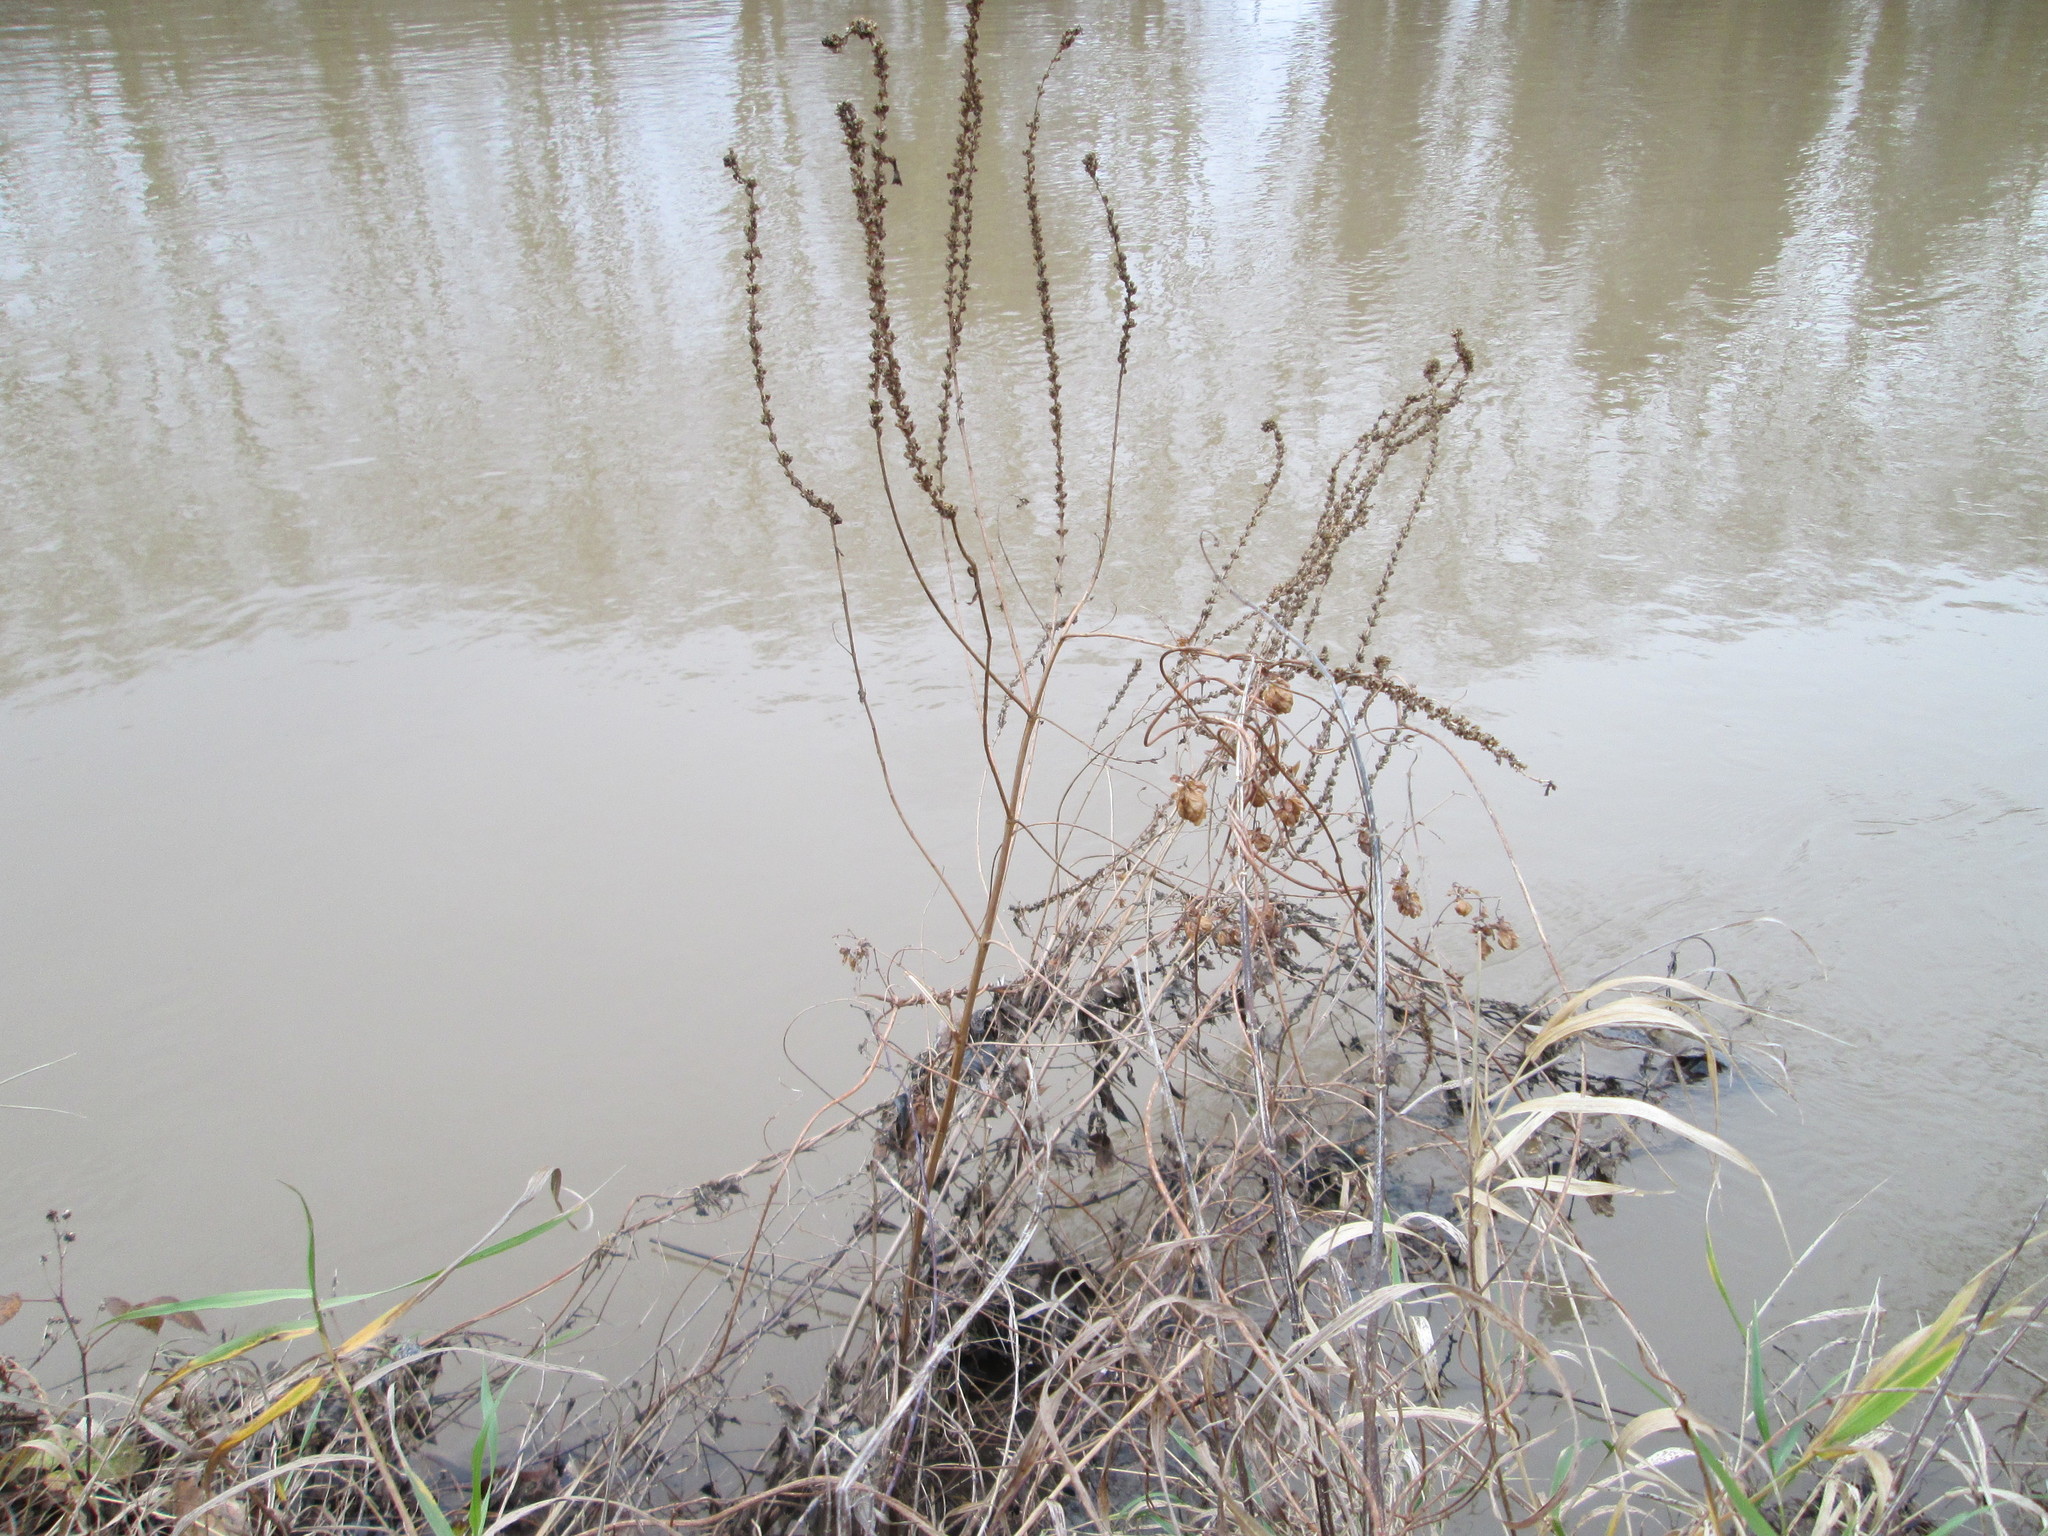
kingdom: Plantae
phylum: Tracheophyta
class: Magnoliopsida
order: Myrtales
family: Lythraceae
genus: Lythrum
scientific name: Lythrum salicaria
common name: Purple loosestrife
